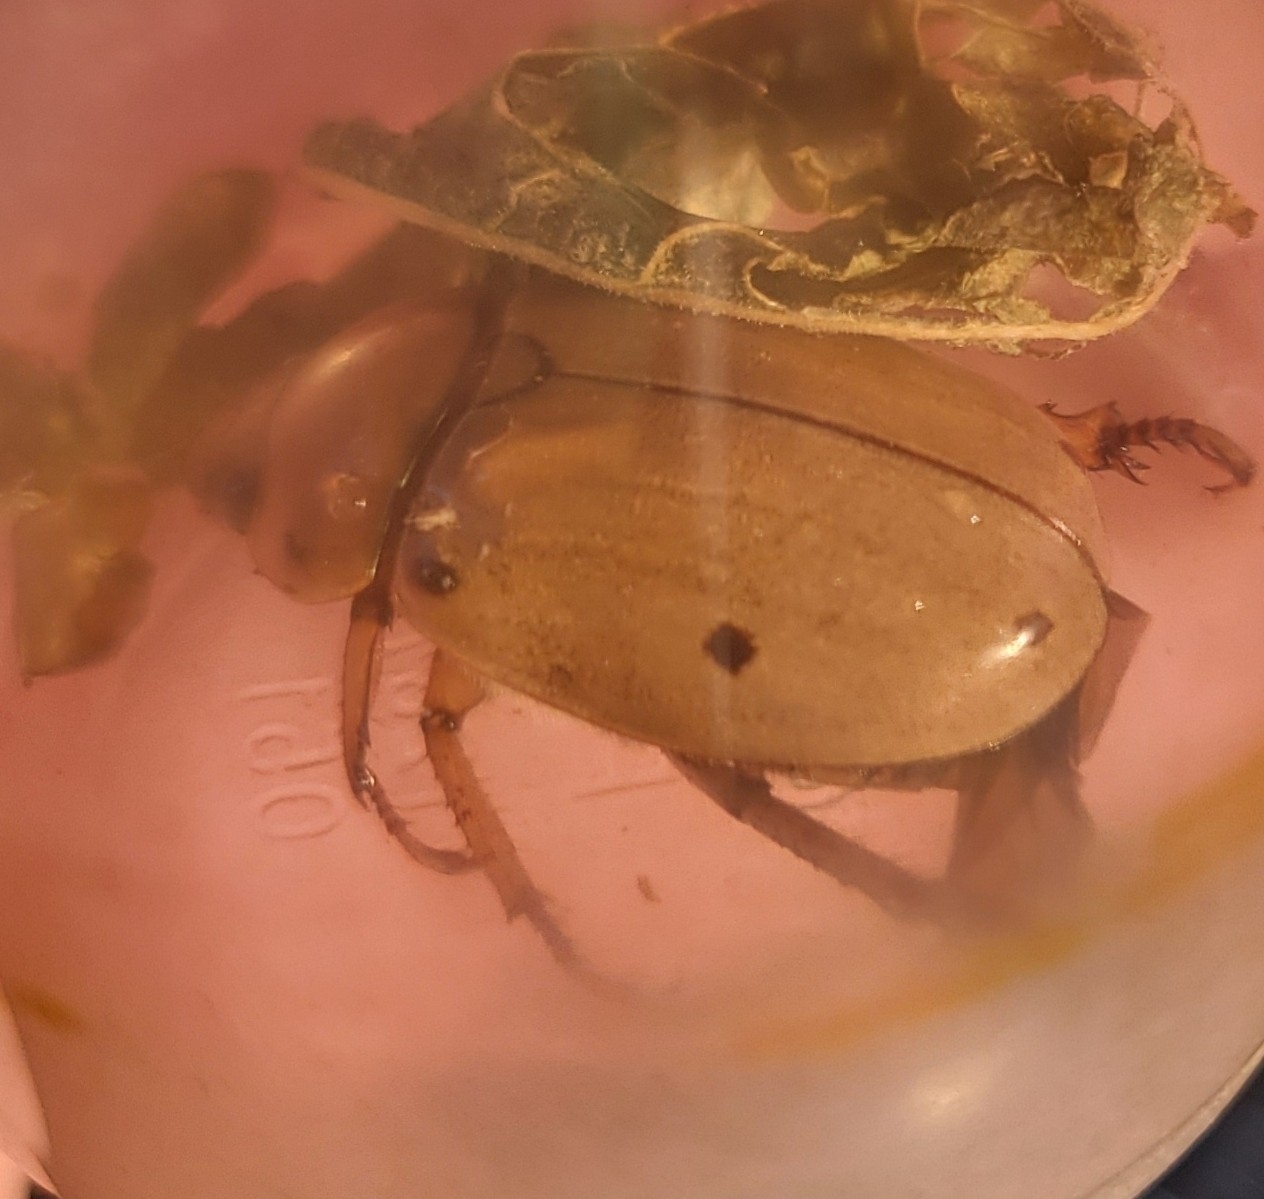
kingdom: Animalia
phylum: Arthropoda
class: Insecta
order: Coleoptera
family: Scarabaeidae
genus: Pelidnota
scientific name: Pelidnota punctata
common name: Grapevine beetle
